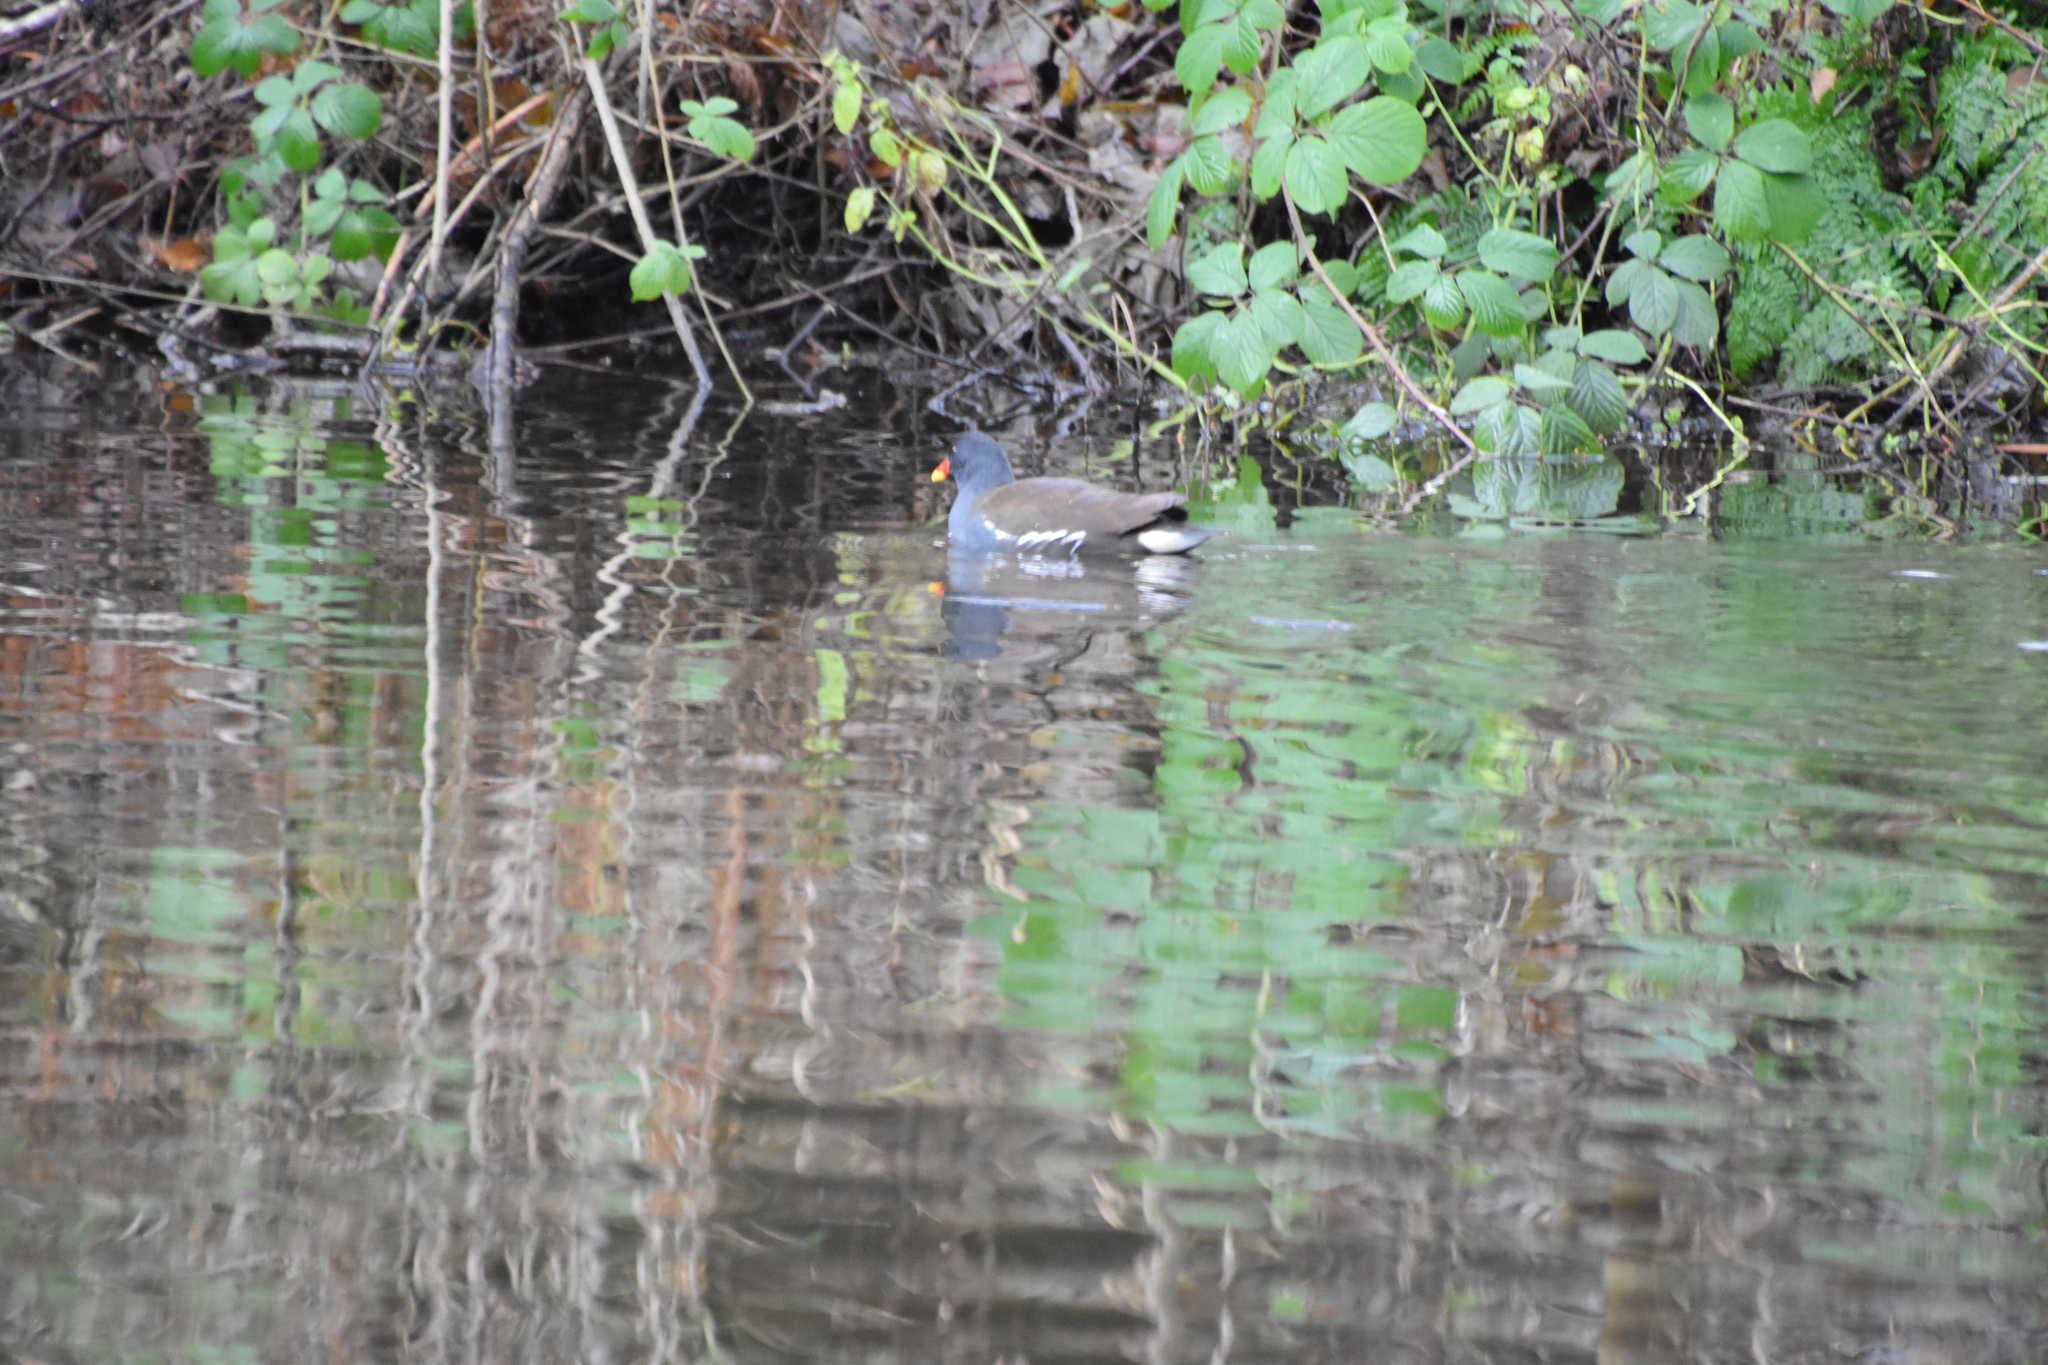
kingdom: Animalia
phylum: Chordata
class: Aves
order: Gruiformes
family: Rallidae
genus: Gallinula
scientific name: Gallinula chloropus
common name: Common moorhen
